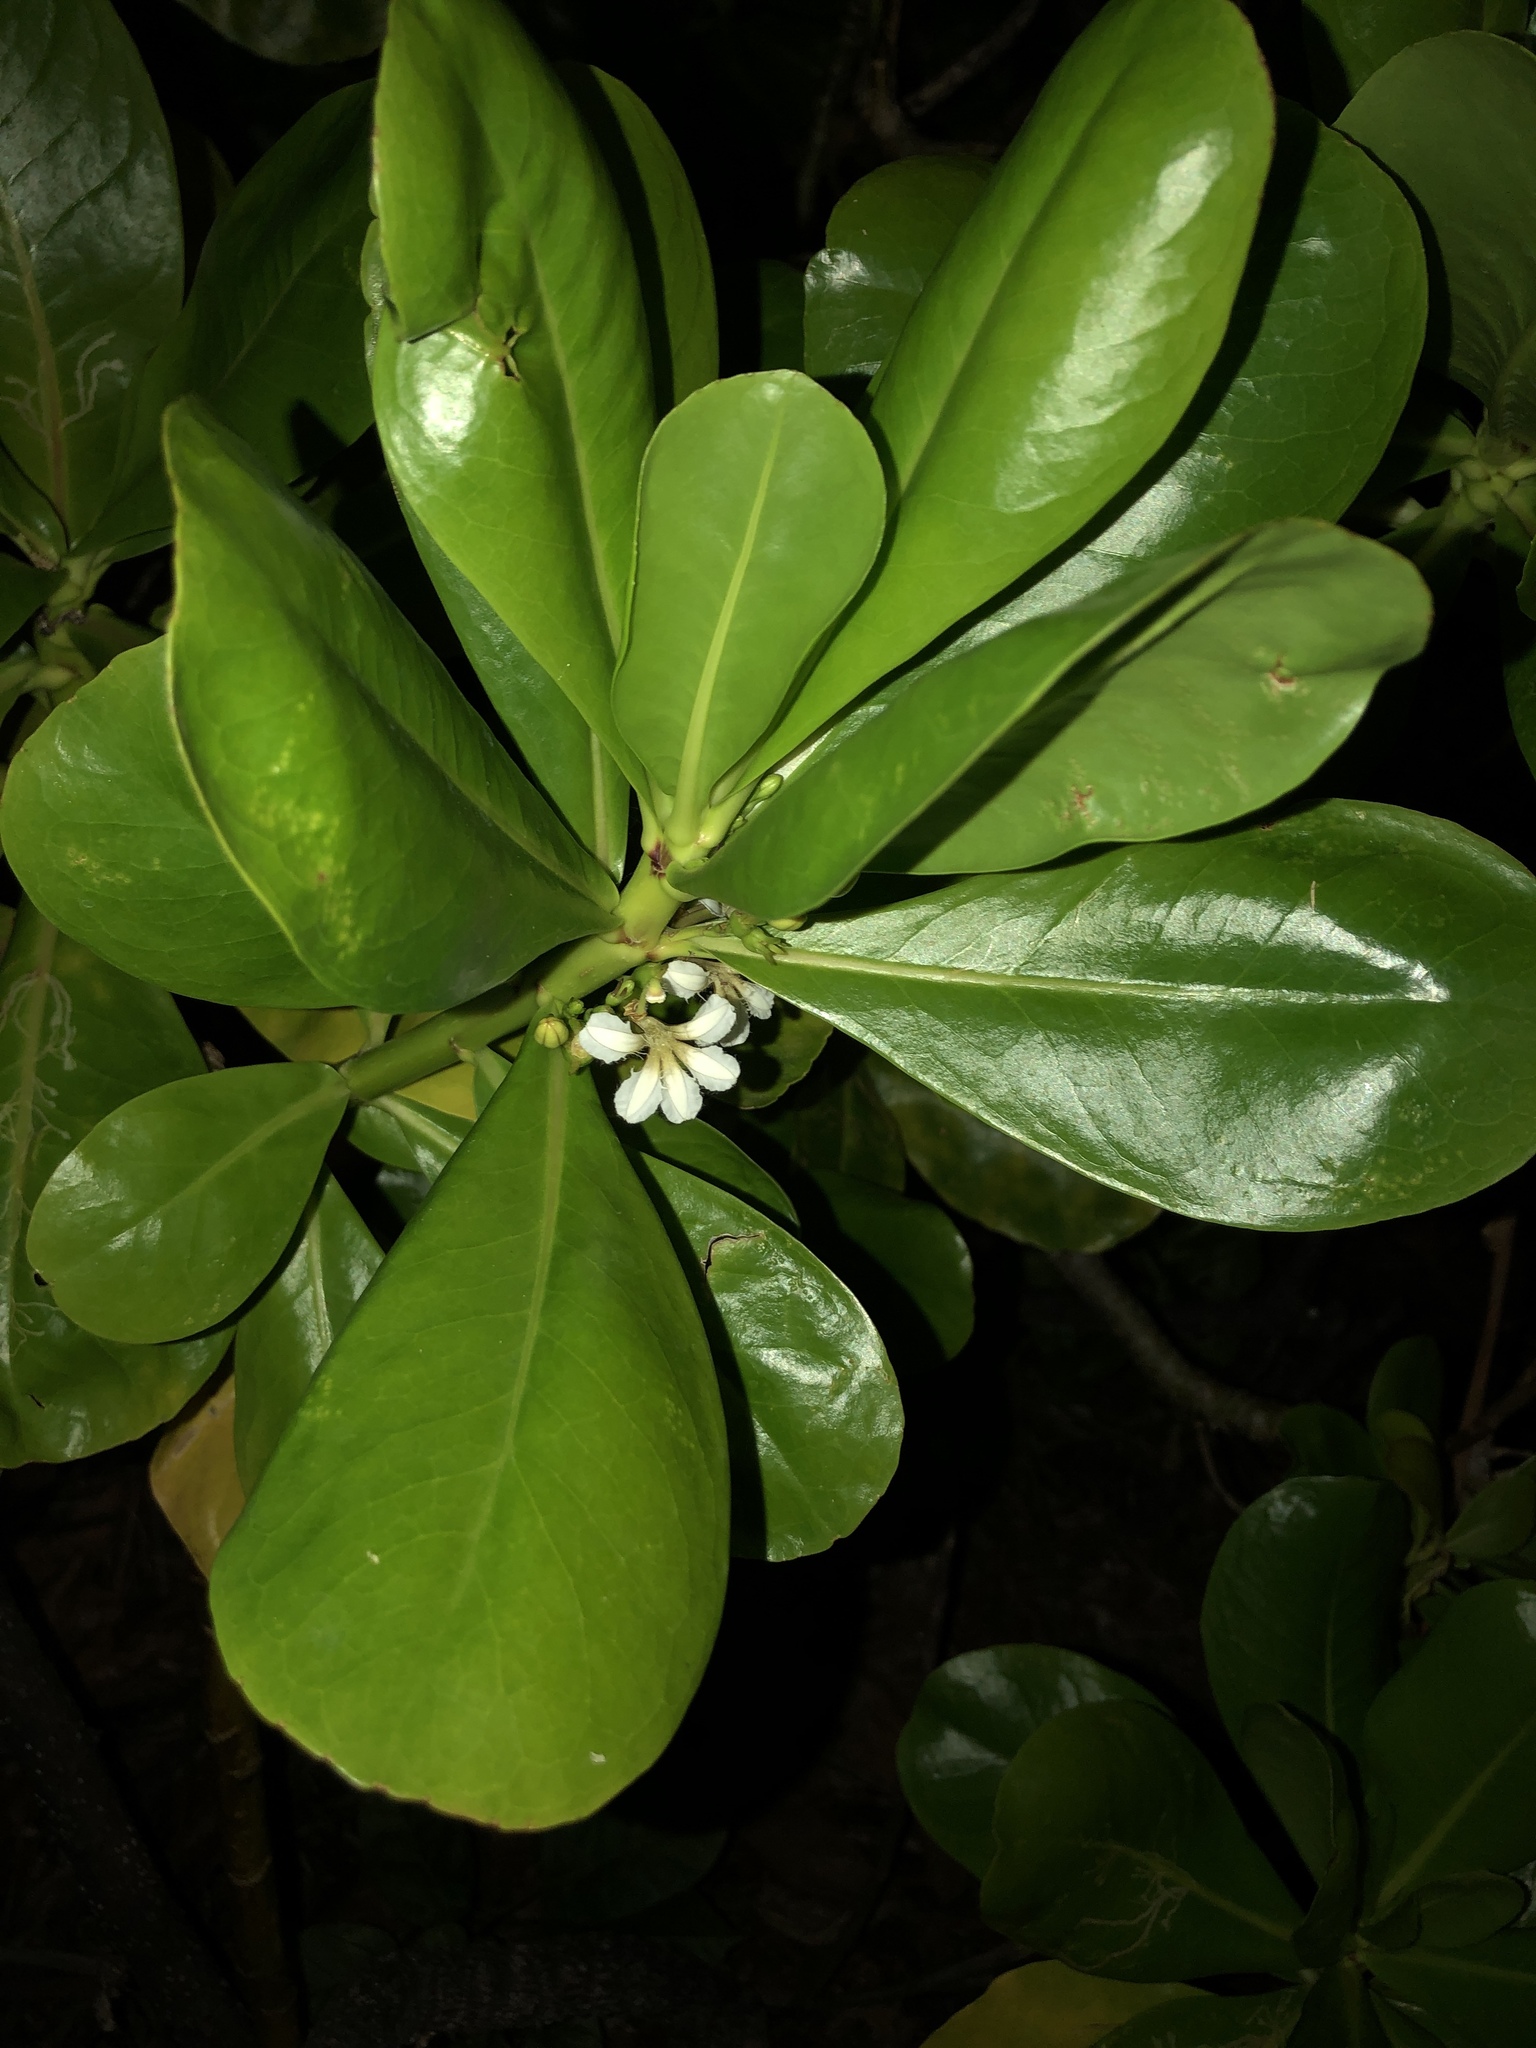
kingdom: Plantae
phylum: Tracheophyta
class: Magnoliopsida
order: Asterales
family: Goodeniaceae
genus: Scaevola
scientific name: Scaevola taccada
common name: Sea lettucetree
